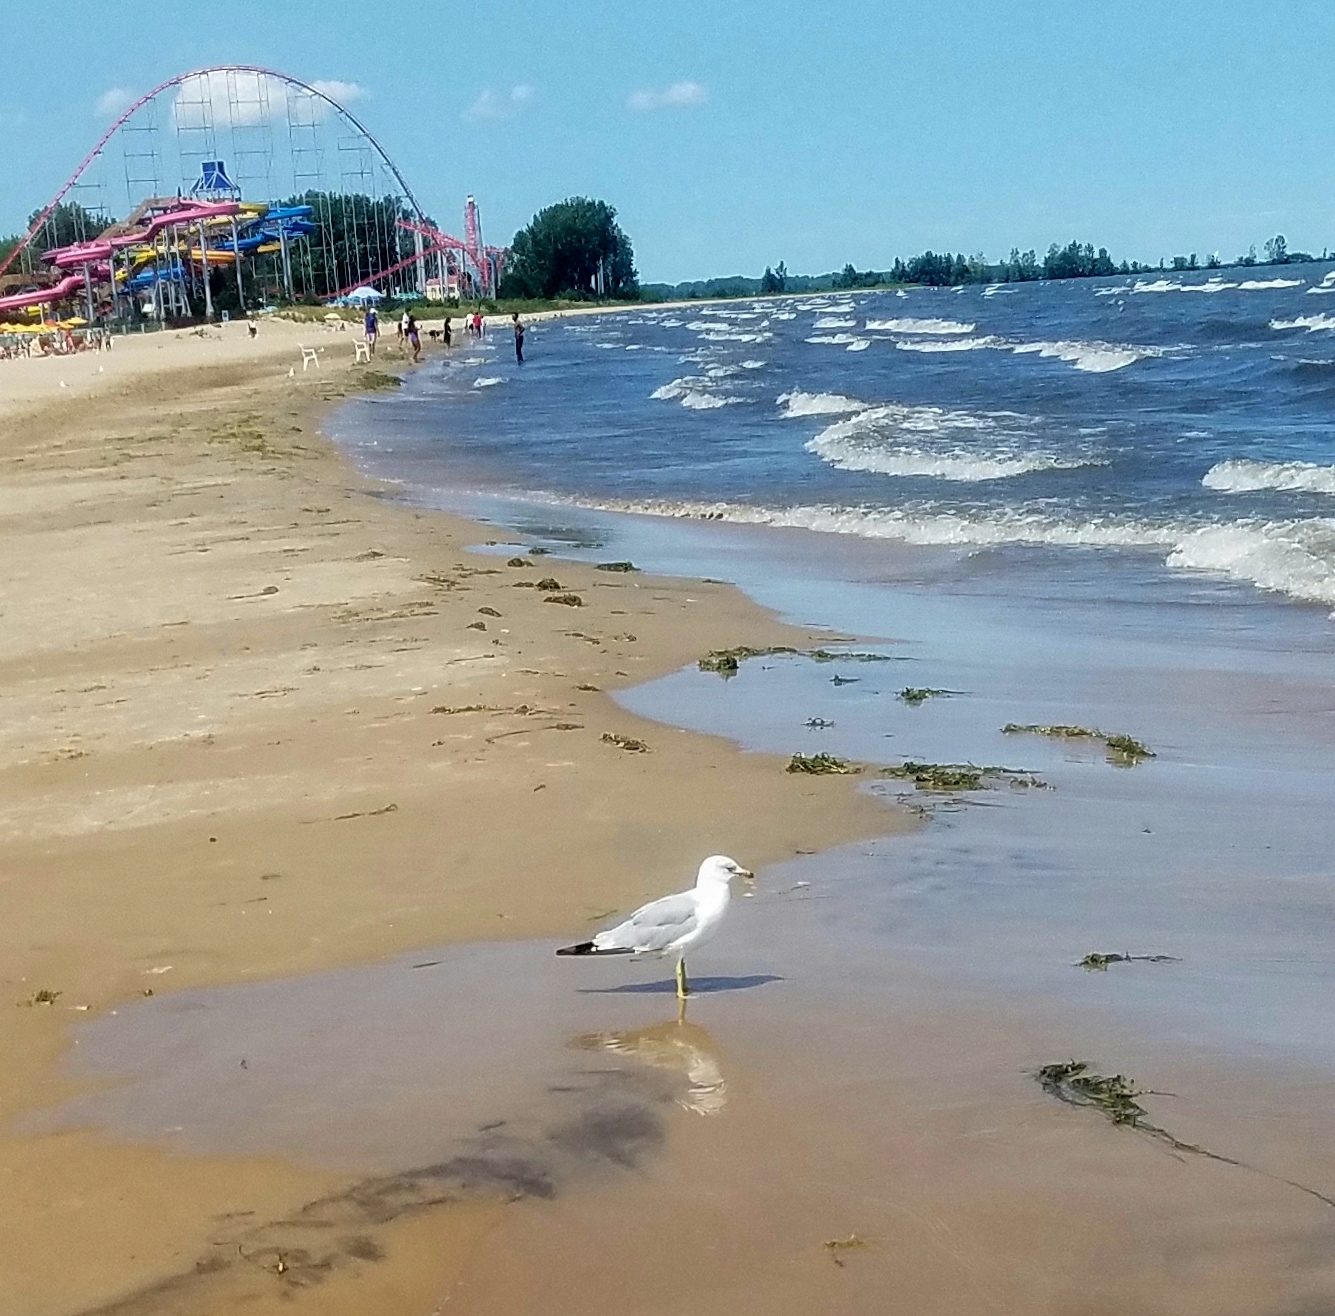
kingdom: Animalia
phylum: Chordata
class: Aves
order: Charadriiformes
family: Laridae
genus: Larus
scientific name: Larus delawarensis
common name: Ring-billed gull
